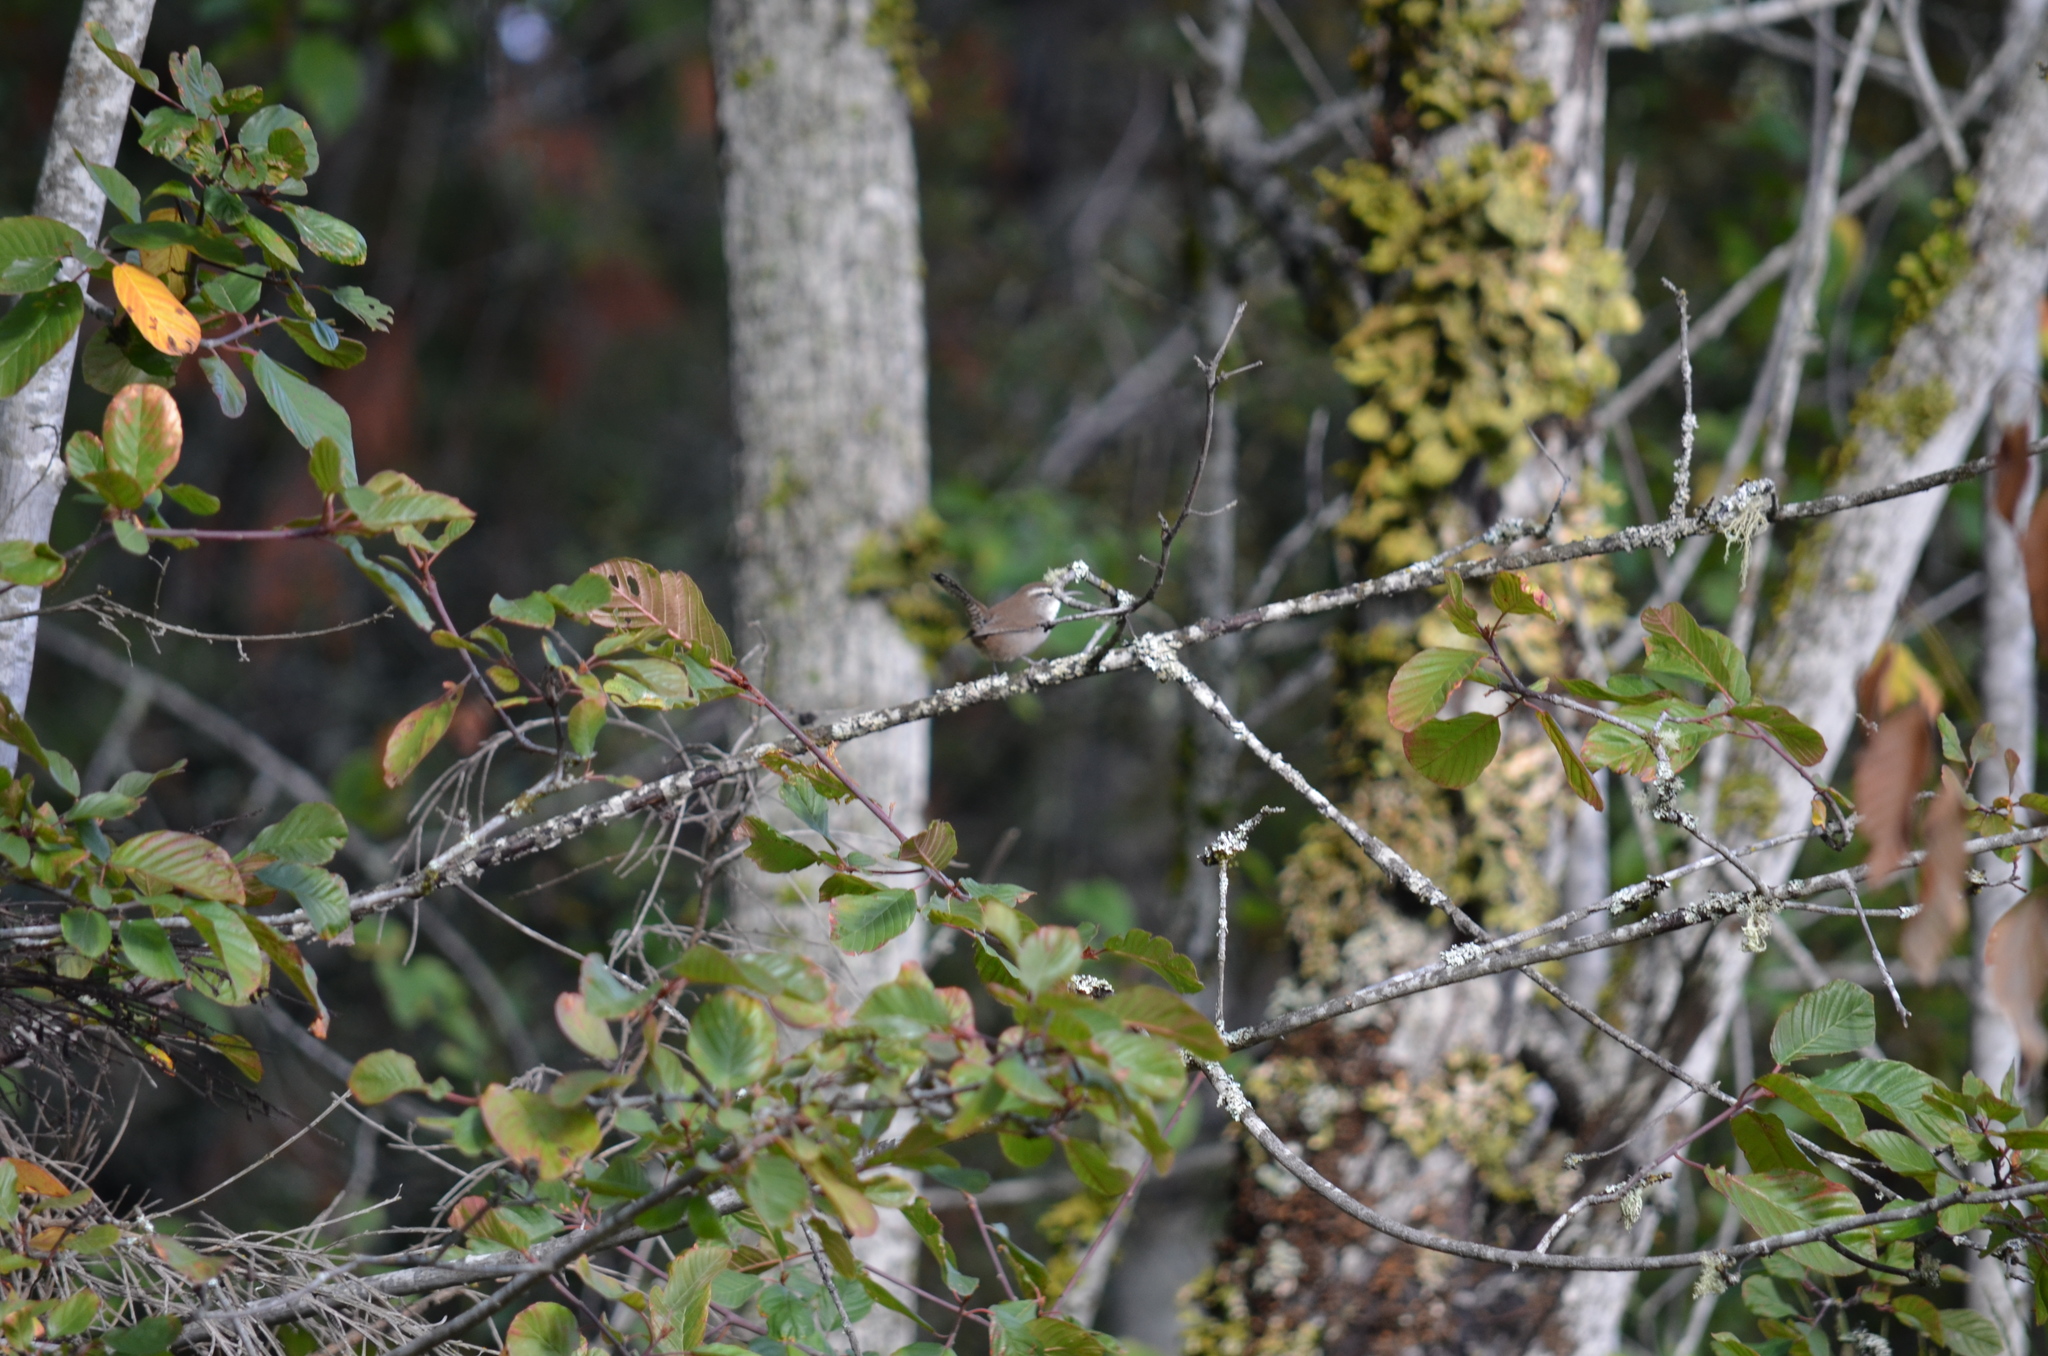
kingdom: Animalia
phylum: Chordata
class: Aves
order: Passeriformes
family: Troglodytidae
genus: Thryomanes
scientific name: Thryomanes bewickii
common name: Bewick's wren
